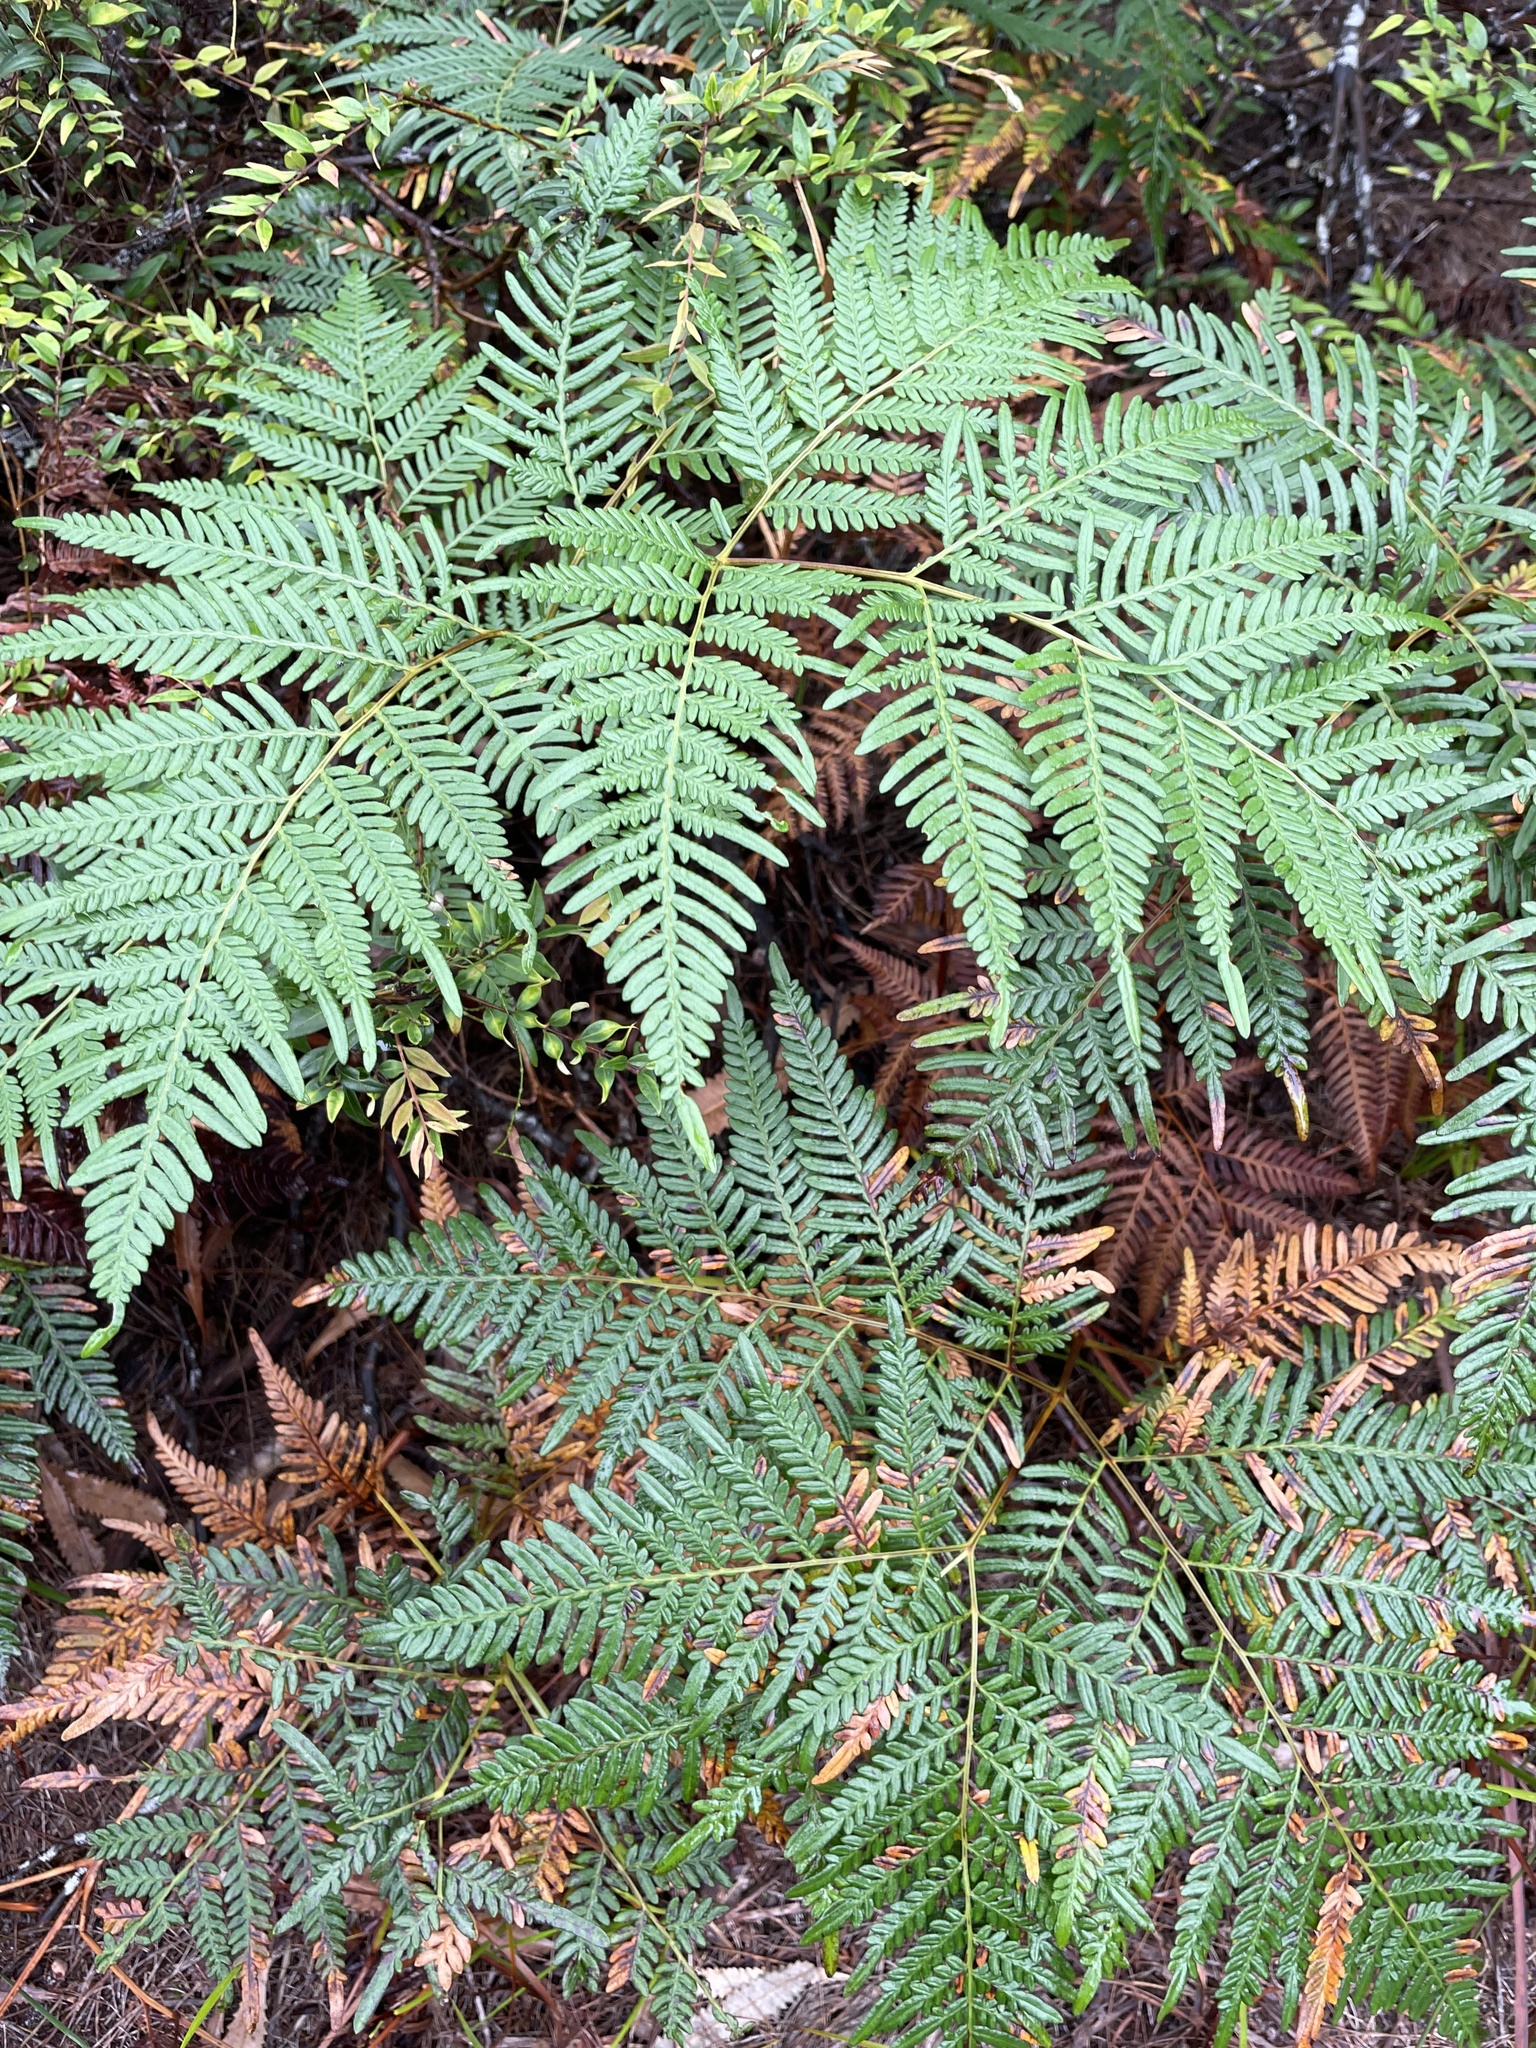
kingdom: Plantae
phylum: Tracheophyta
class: Polypodiopsida
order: Polypodiales
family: Dennstaedtiaceae
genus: Pteridium
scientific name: Pteridium esculentum
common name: Bracken fern
